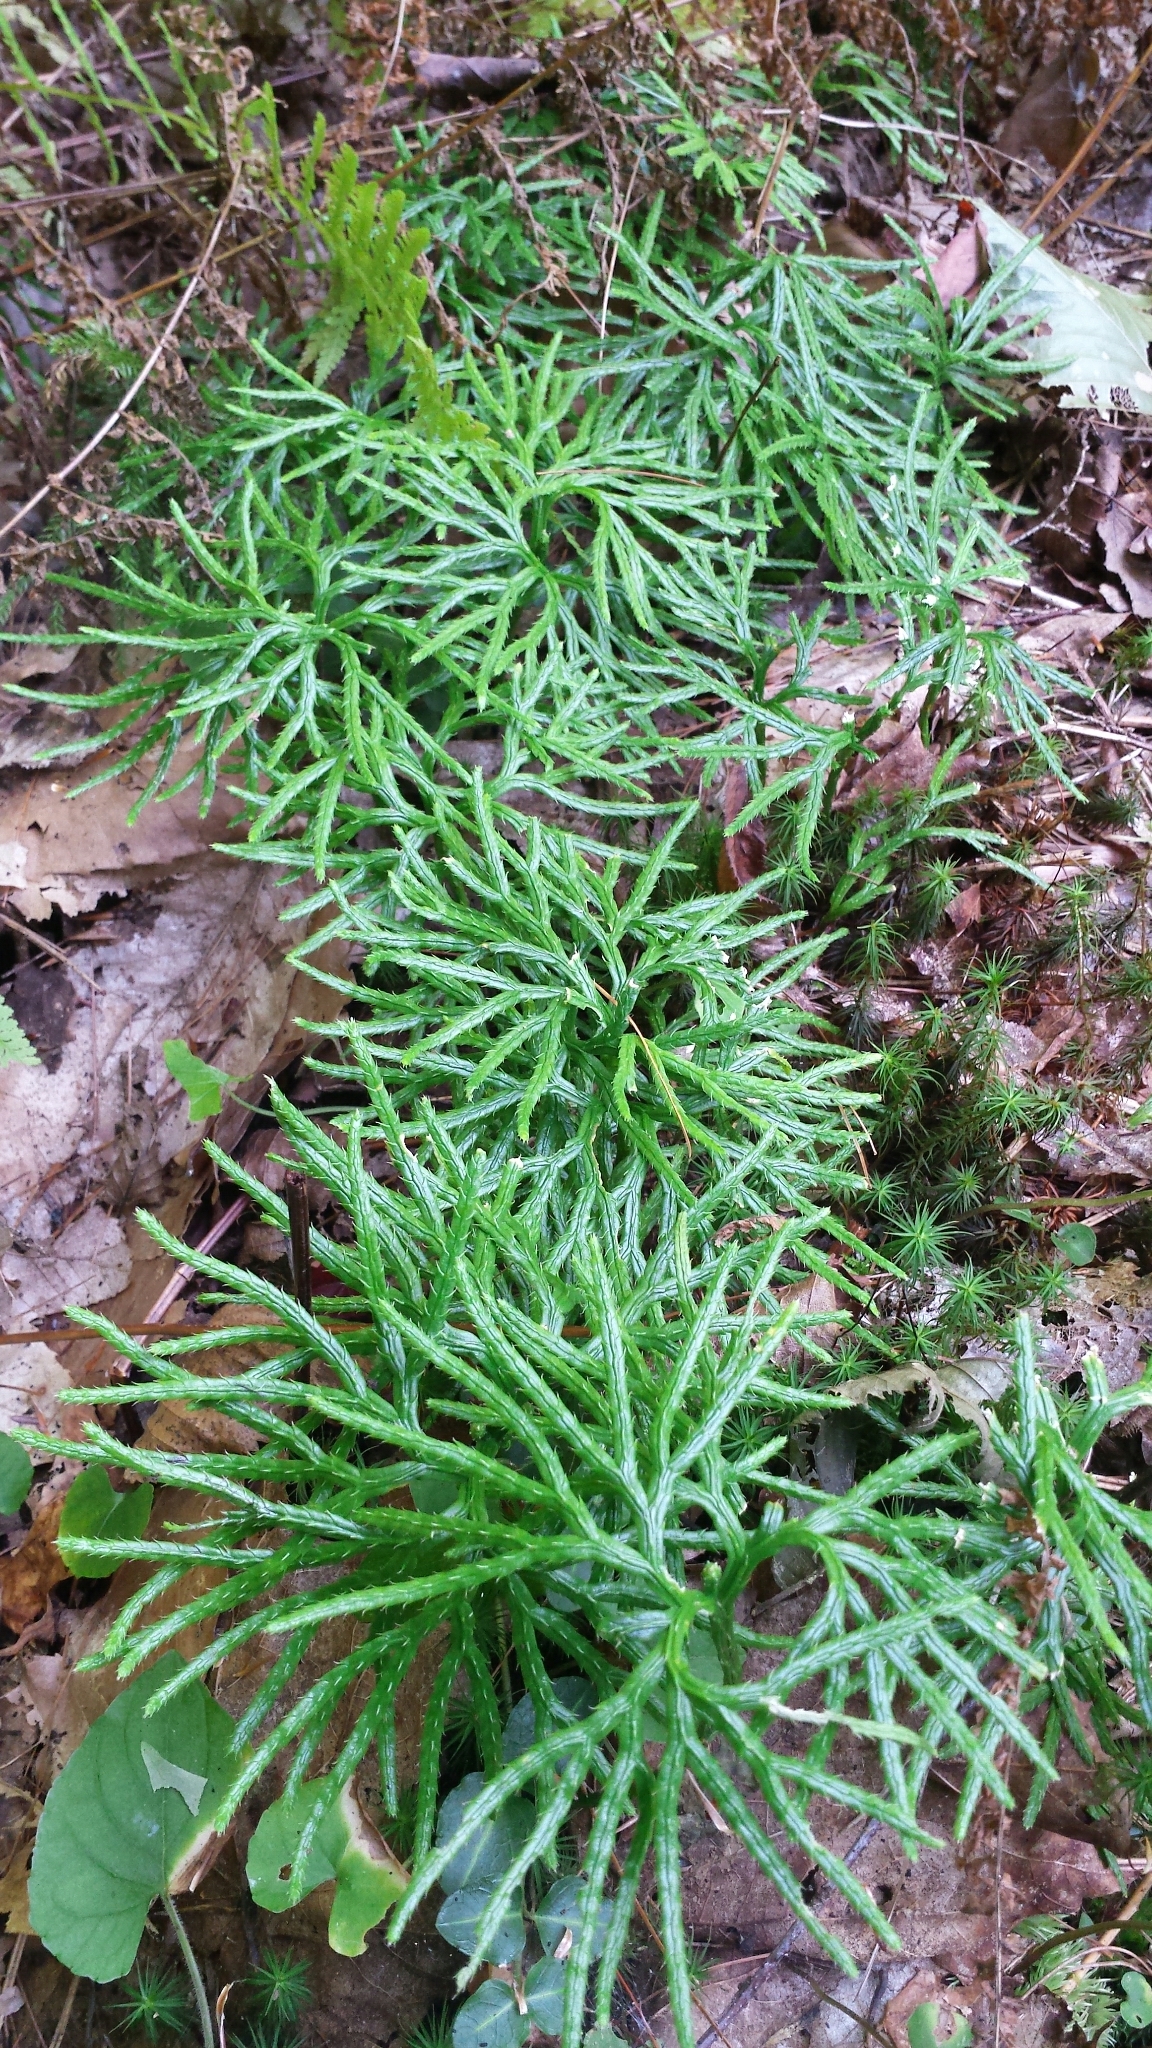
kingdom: Plantae
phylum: Tracheophyta
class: Lycopodiopsida
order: Lycopodiales
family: Lycopodiaceae
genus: Diphasiastrum
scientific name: Diphasiastrum digitatum
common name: Southern running-pine
